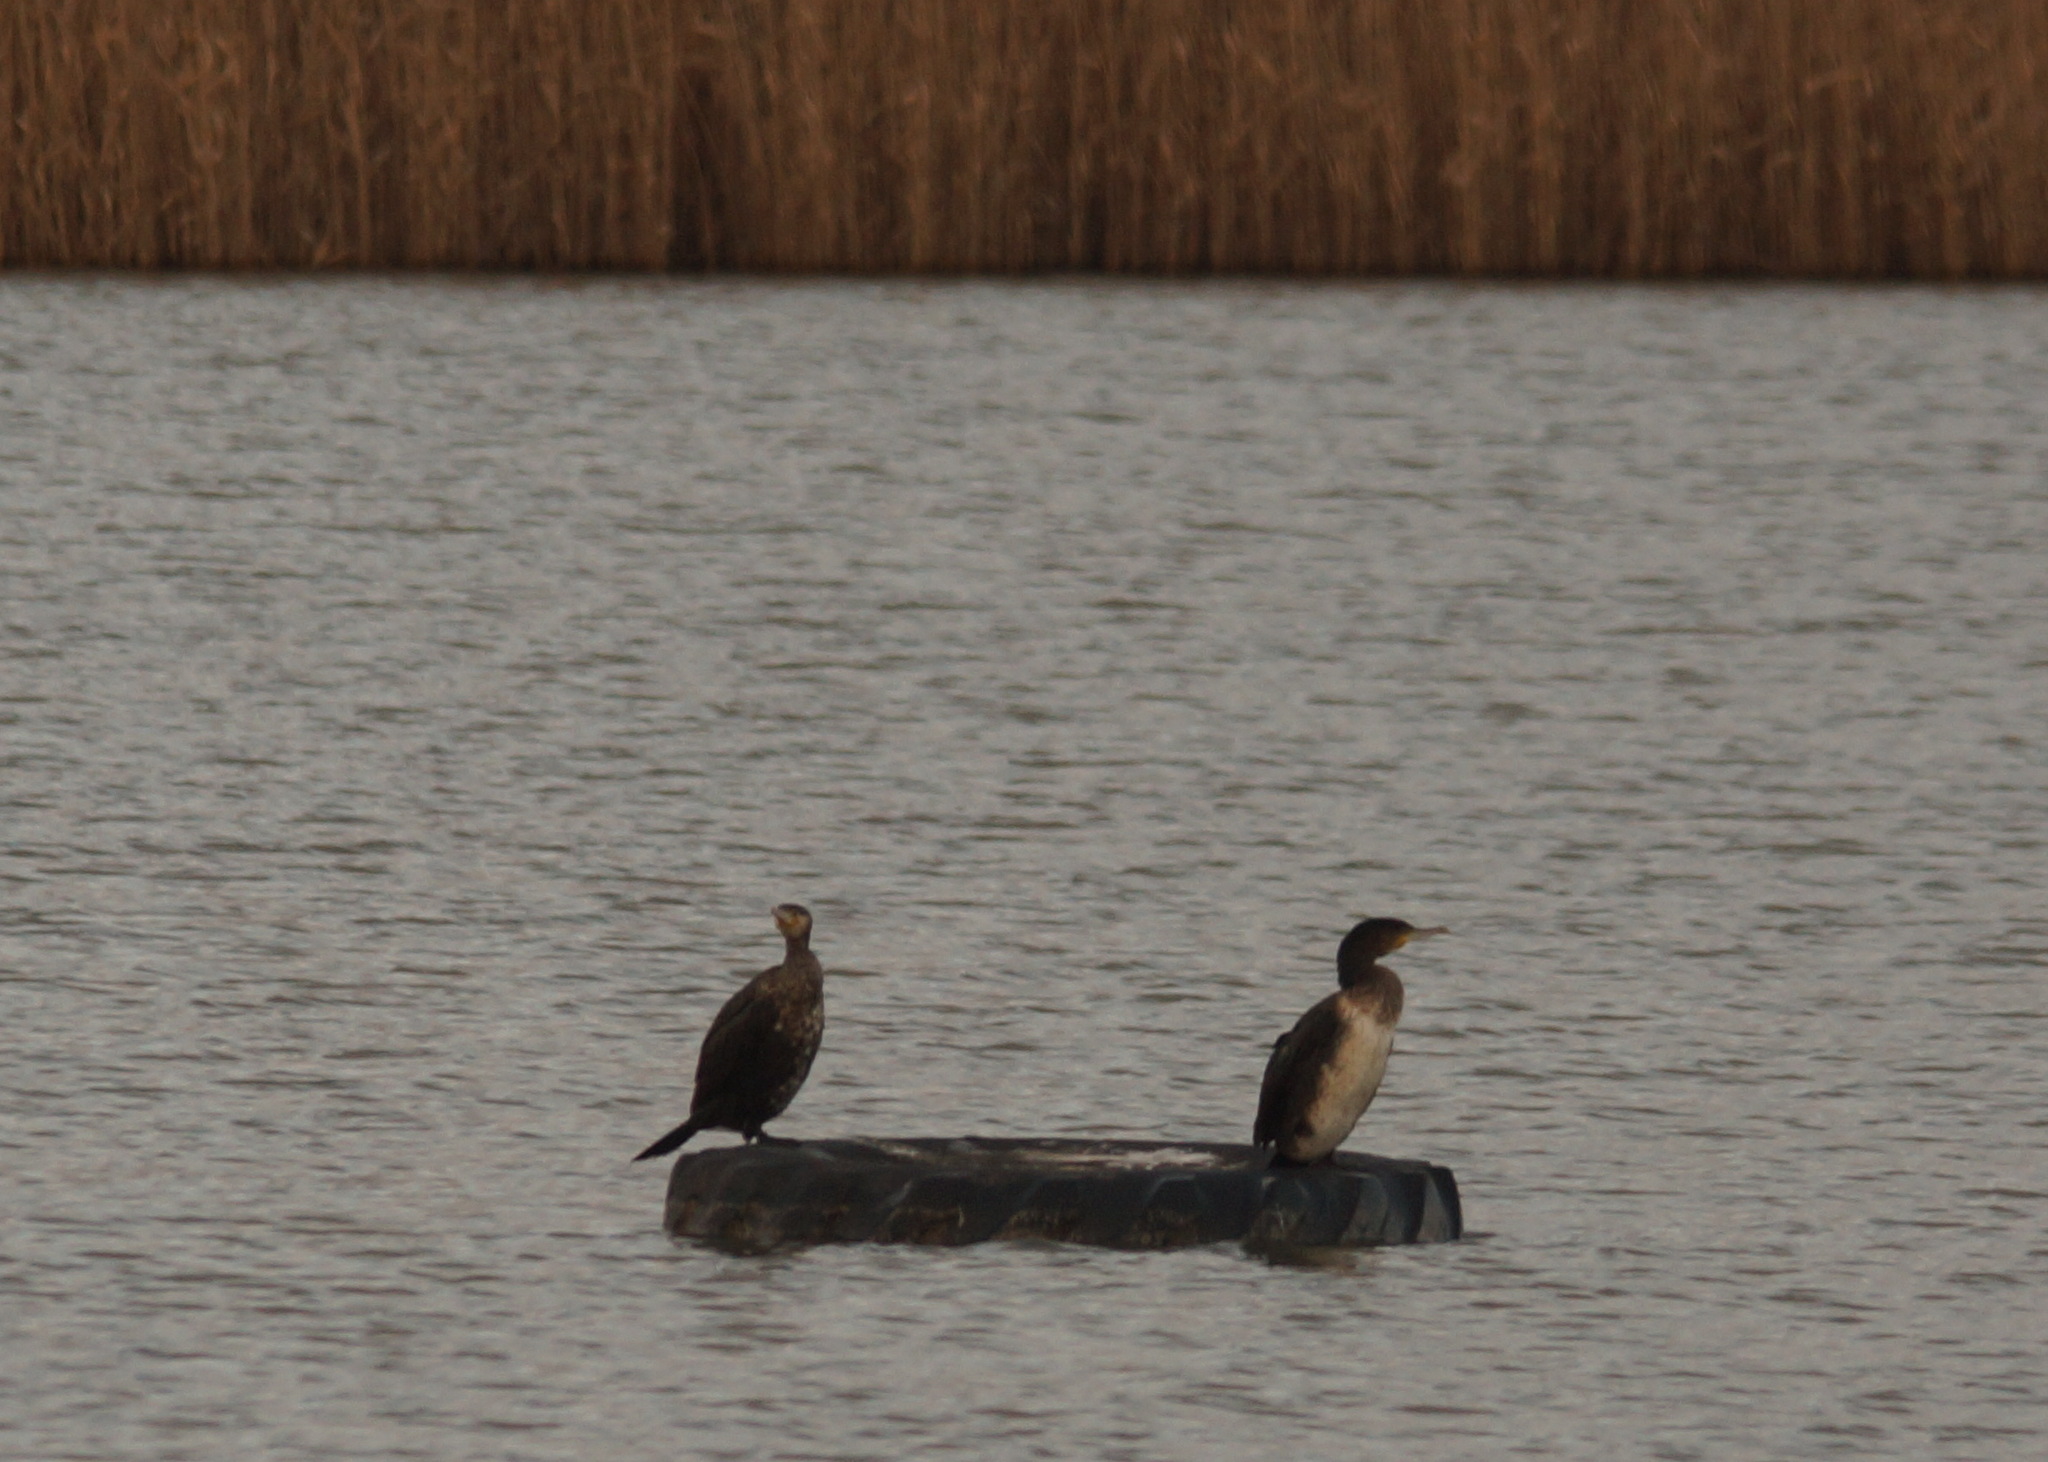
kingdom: Animalia
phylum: Chordata
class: Aves
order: Suliformes
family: Phalacrocoracidae
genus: Phalacrocorax
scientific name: Phalacrocorax carbo
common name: Great cormorant
